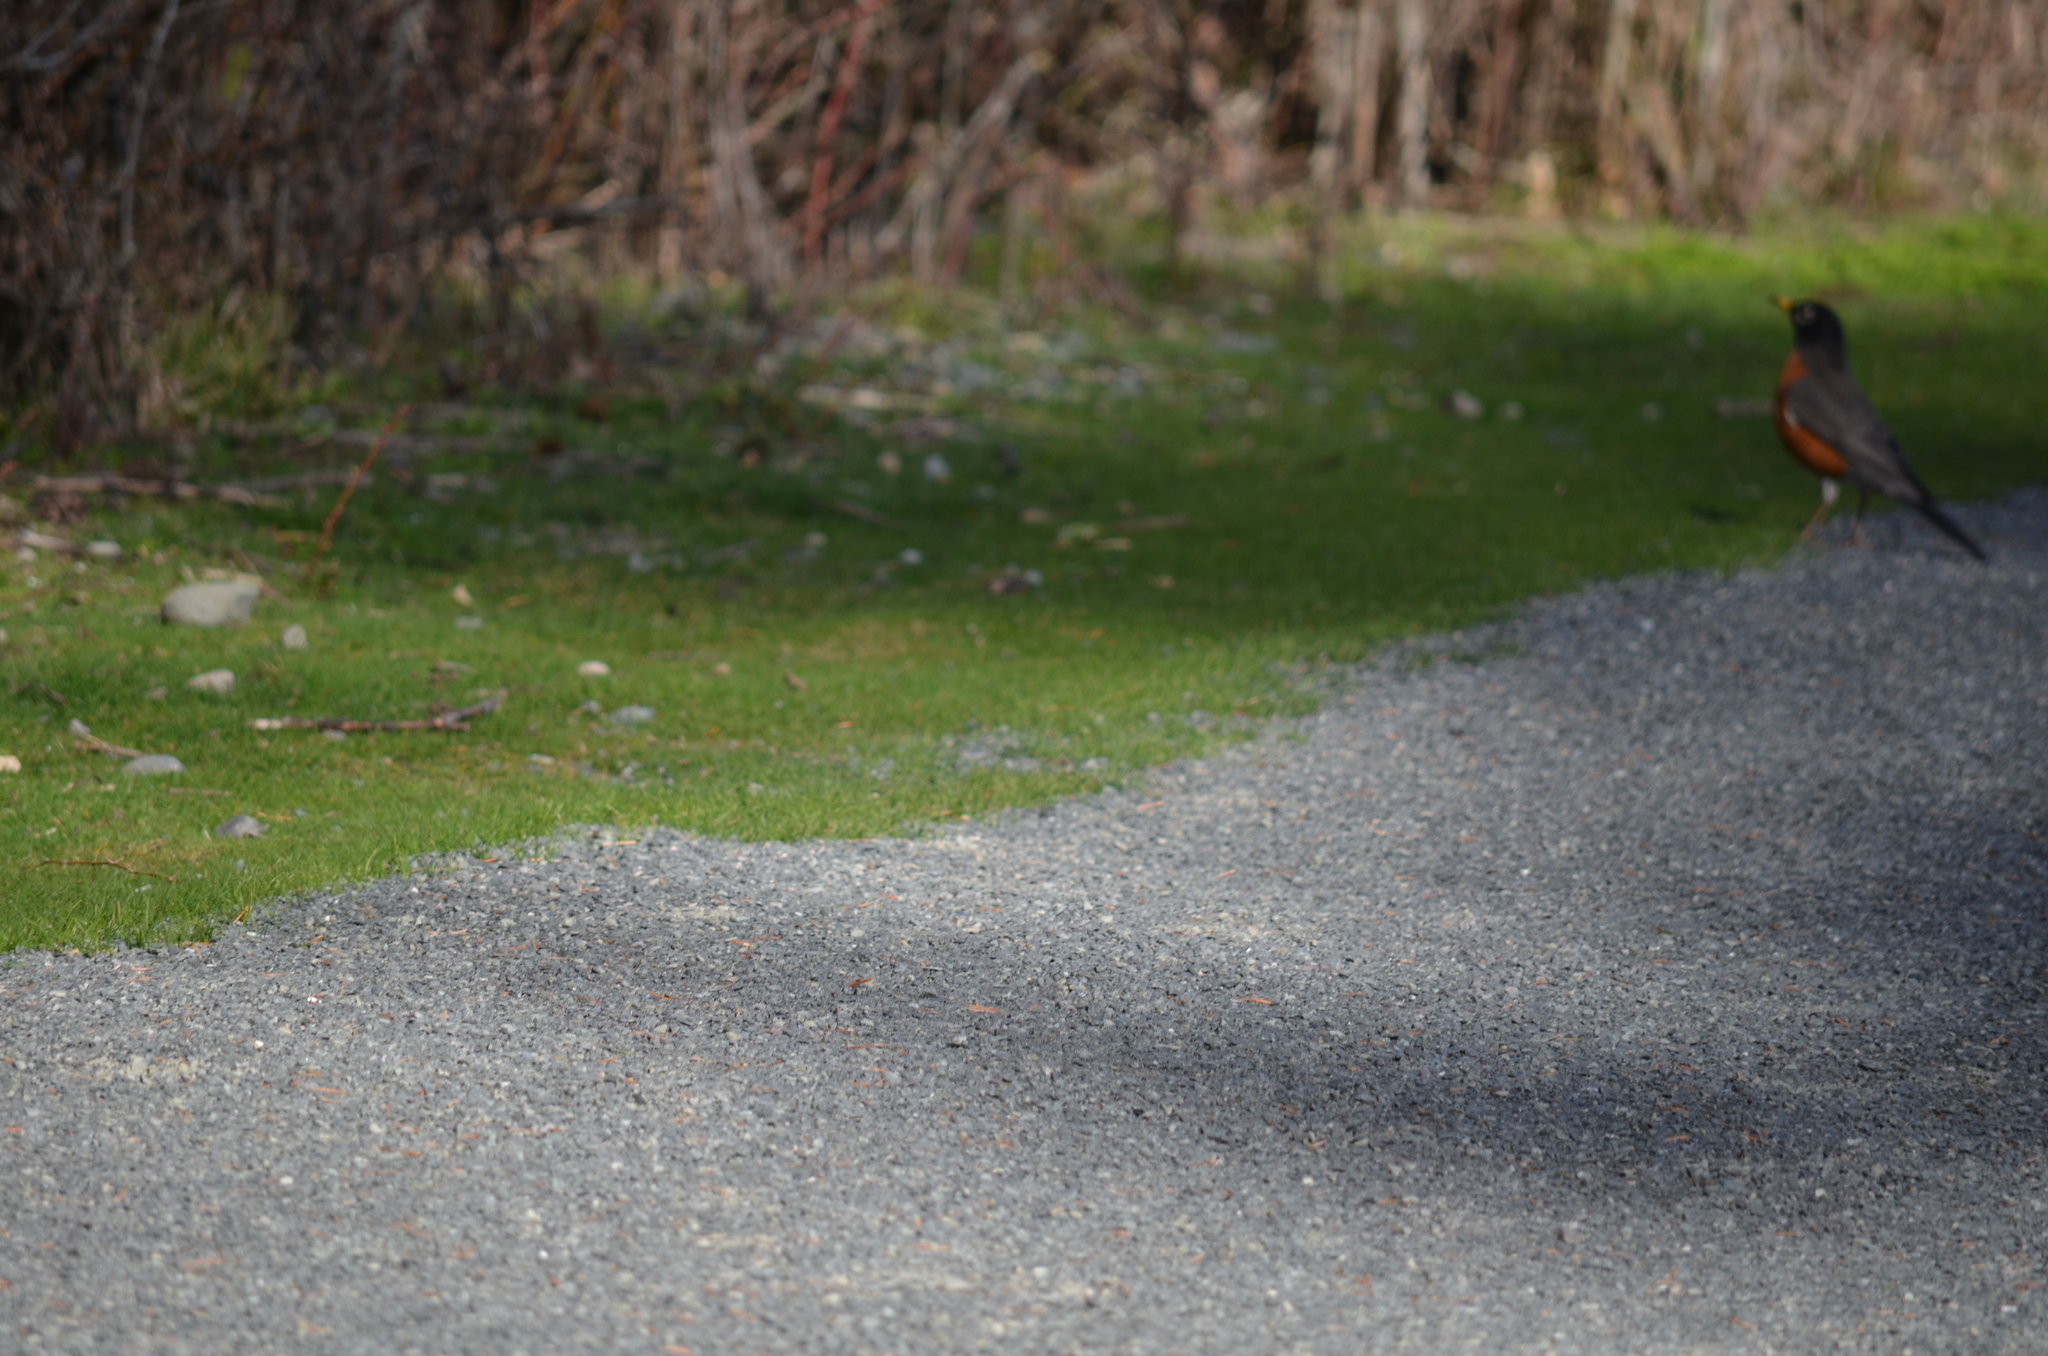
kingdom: Animalia
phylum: Chordata
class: Aves
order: Passeriformes
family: Turdidae
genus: Turdus
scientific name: Turdus migratorius
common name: American robin
